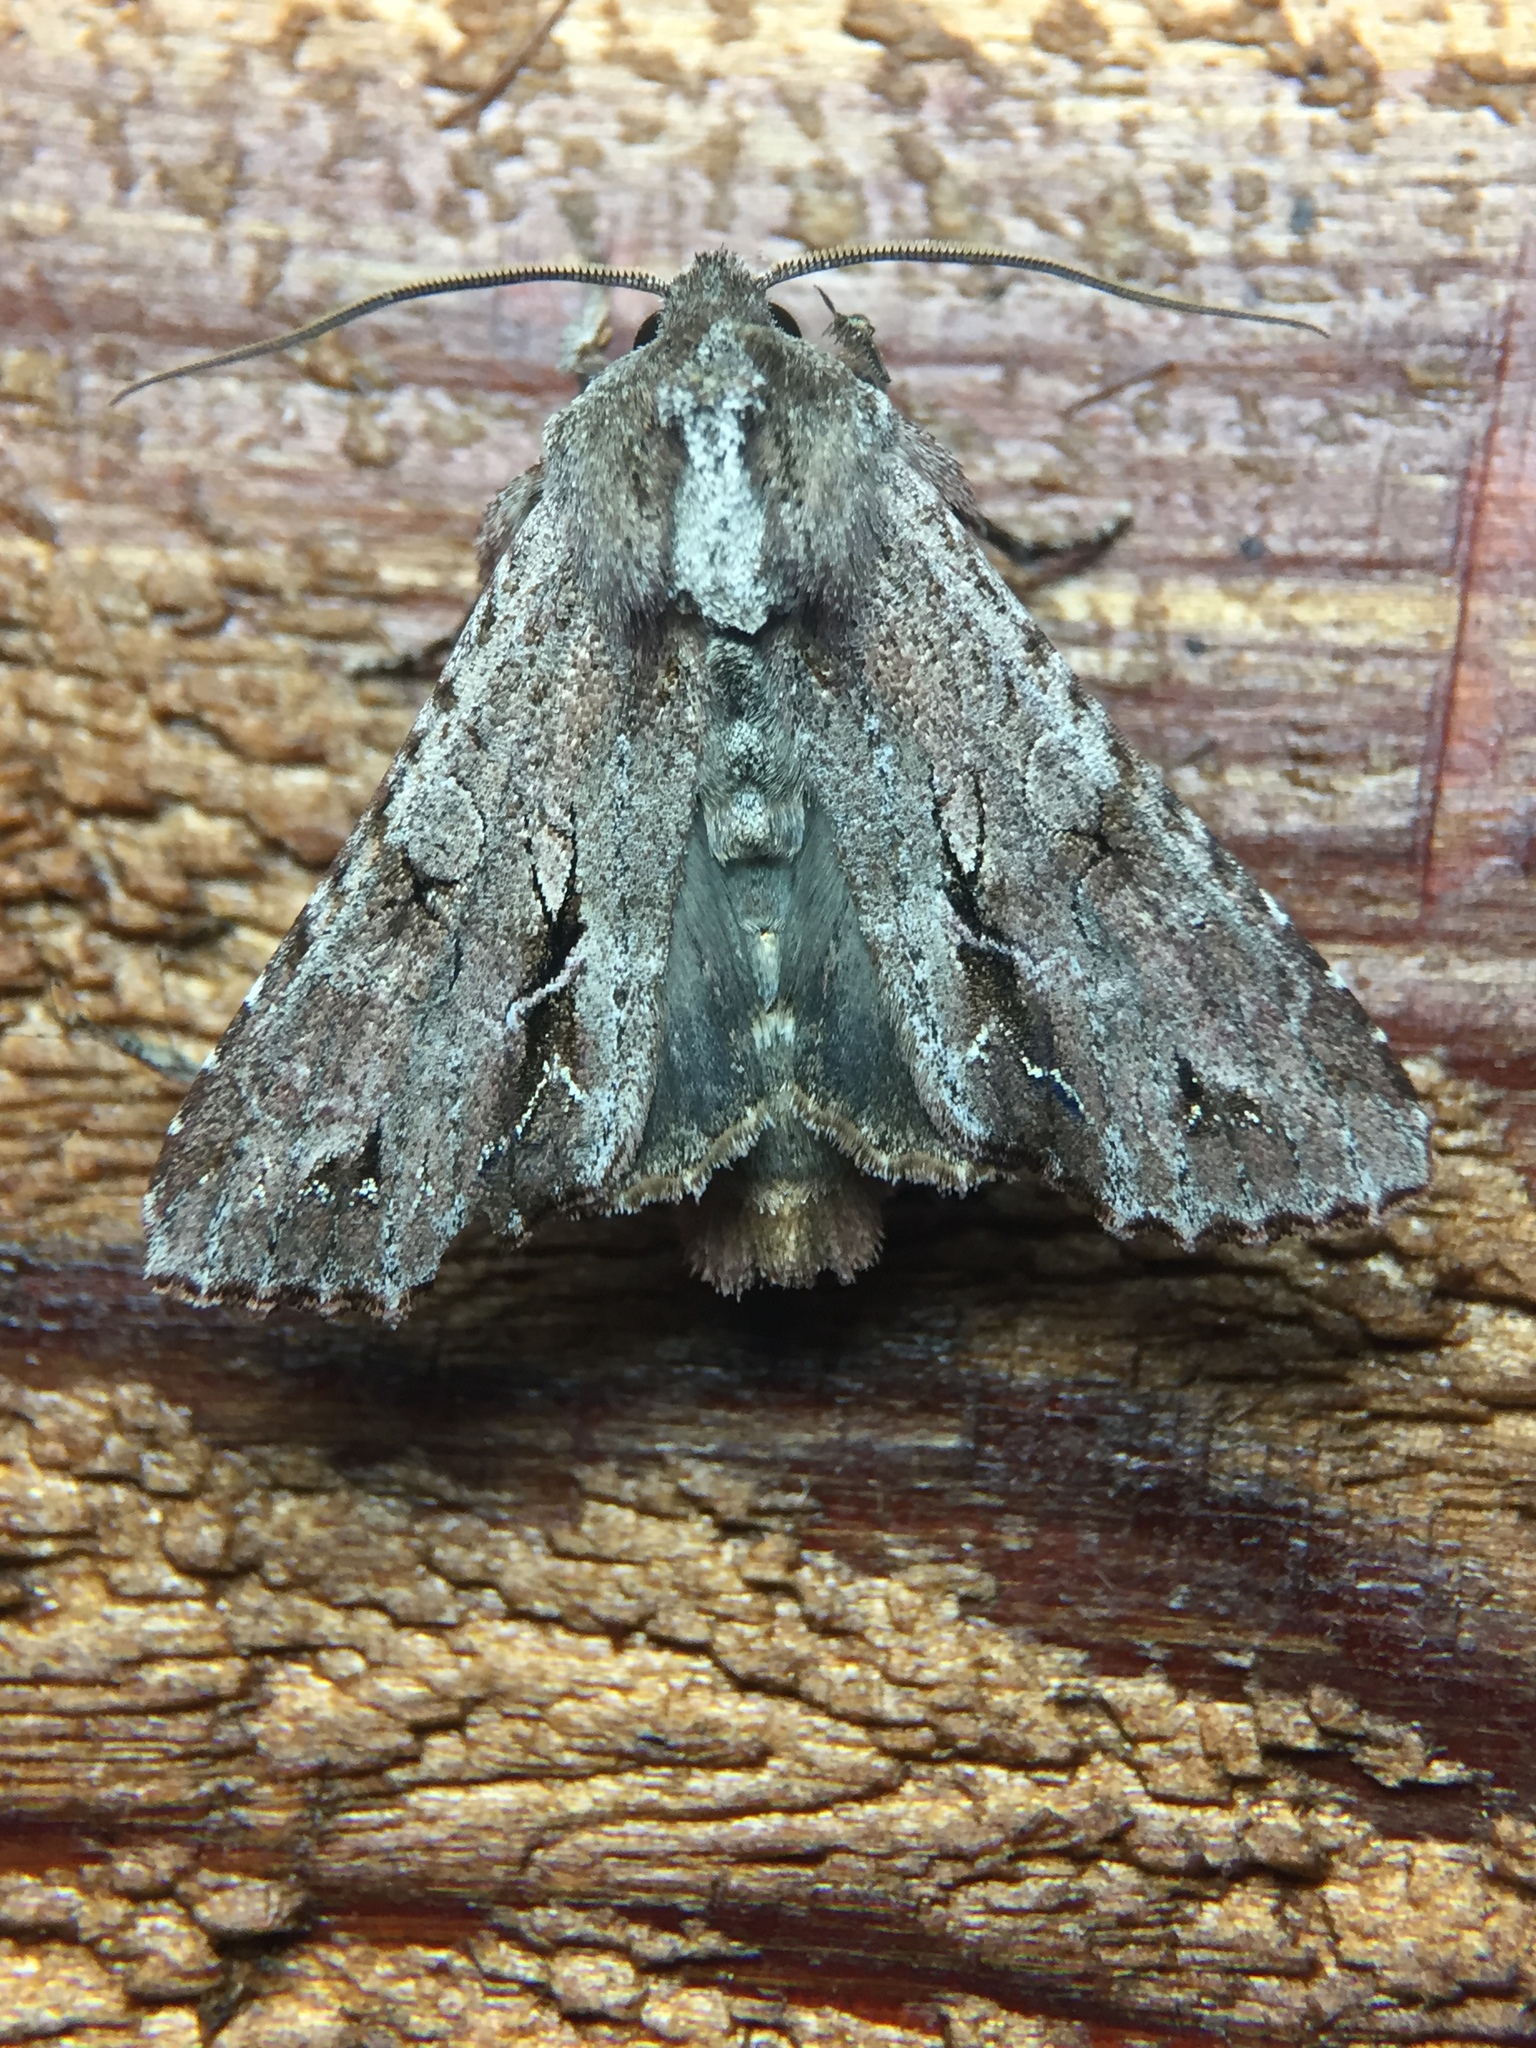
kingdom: Animalia
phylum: Arthropoda
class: Insecta
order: Lepidoptera
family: Noctuidae
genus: Ichneutica
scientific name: Ichneutica
